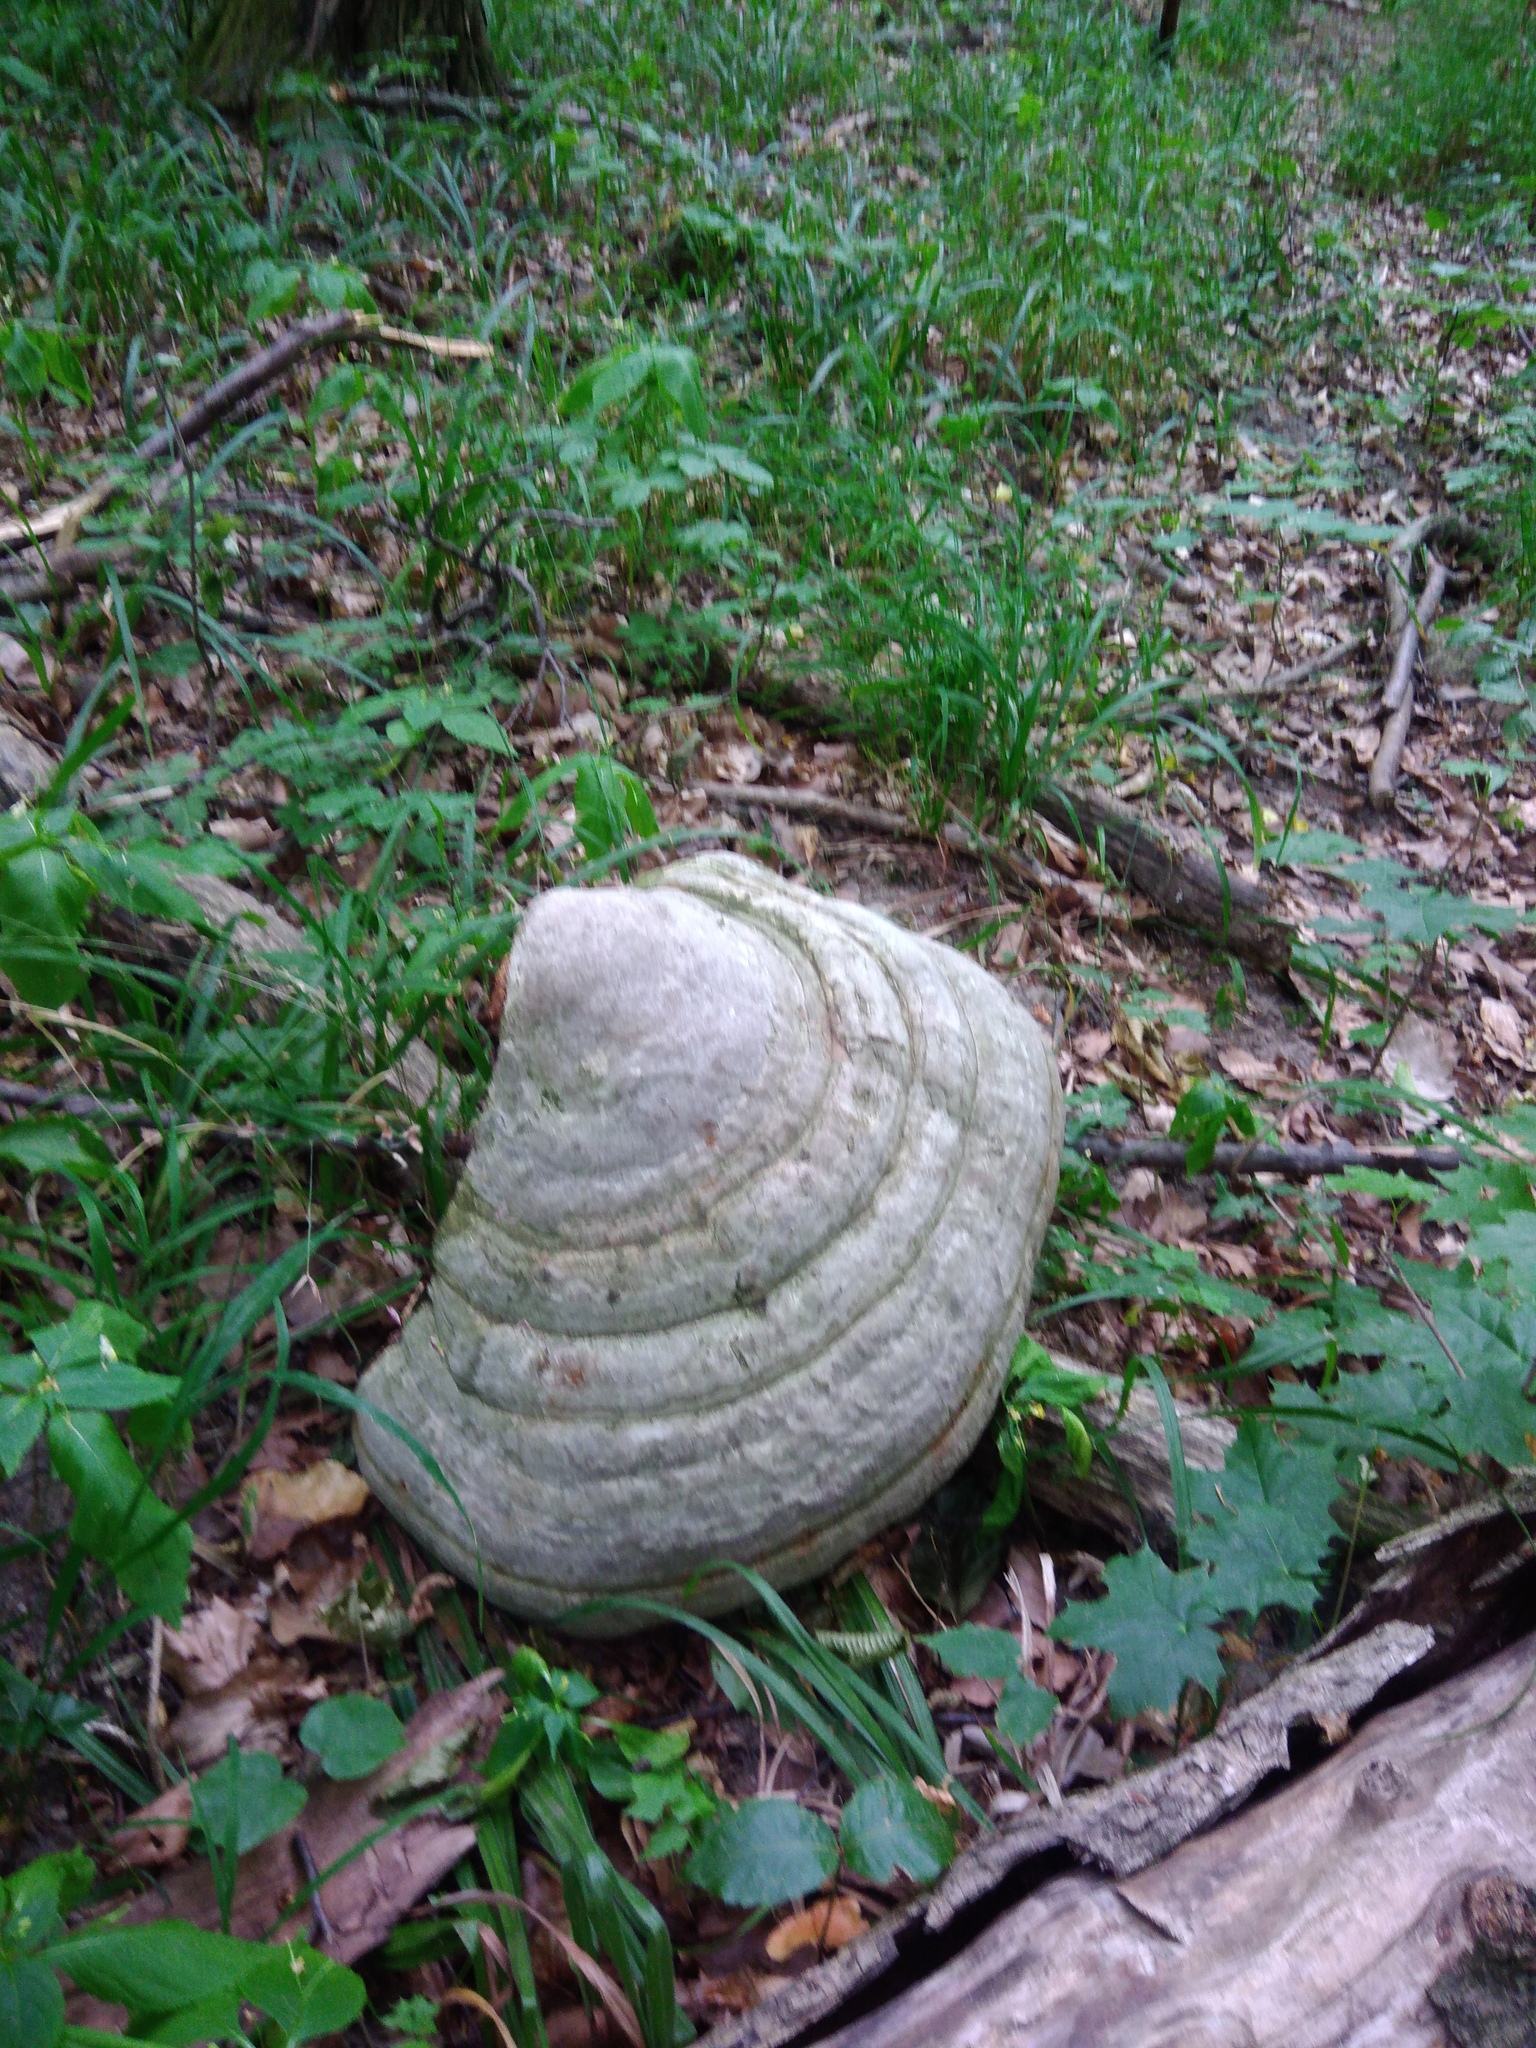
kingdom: Fungi
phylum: Basidiomycota
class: Agaricomycetes
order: Polyporales
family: Polyporaceae
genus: Fomes
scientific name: Fomes fomentarius
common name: Hoof fungus
